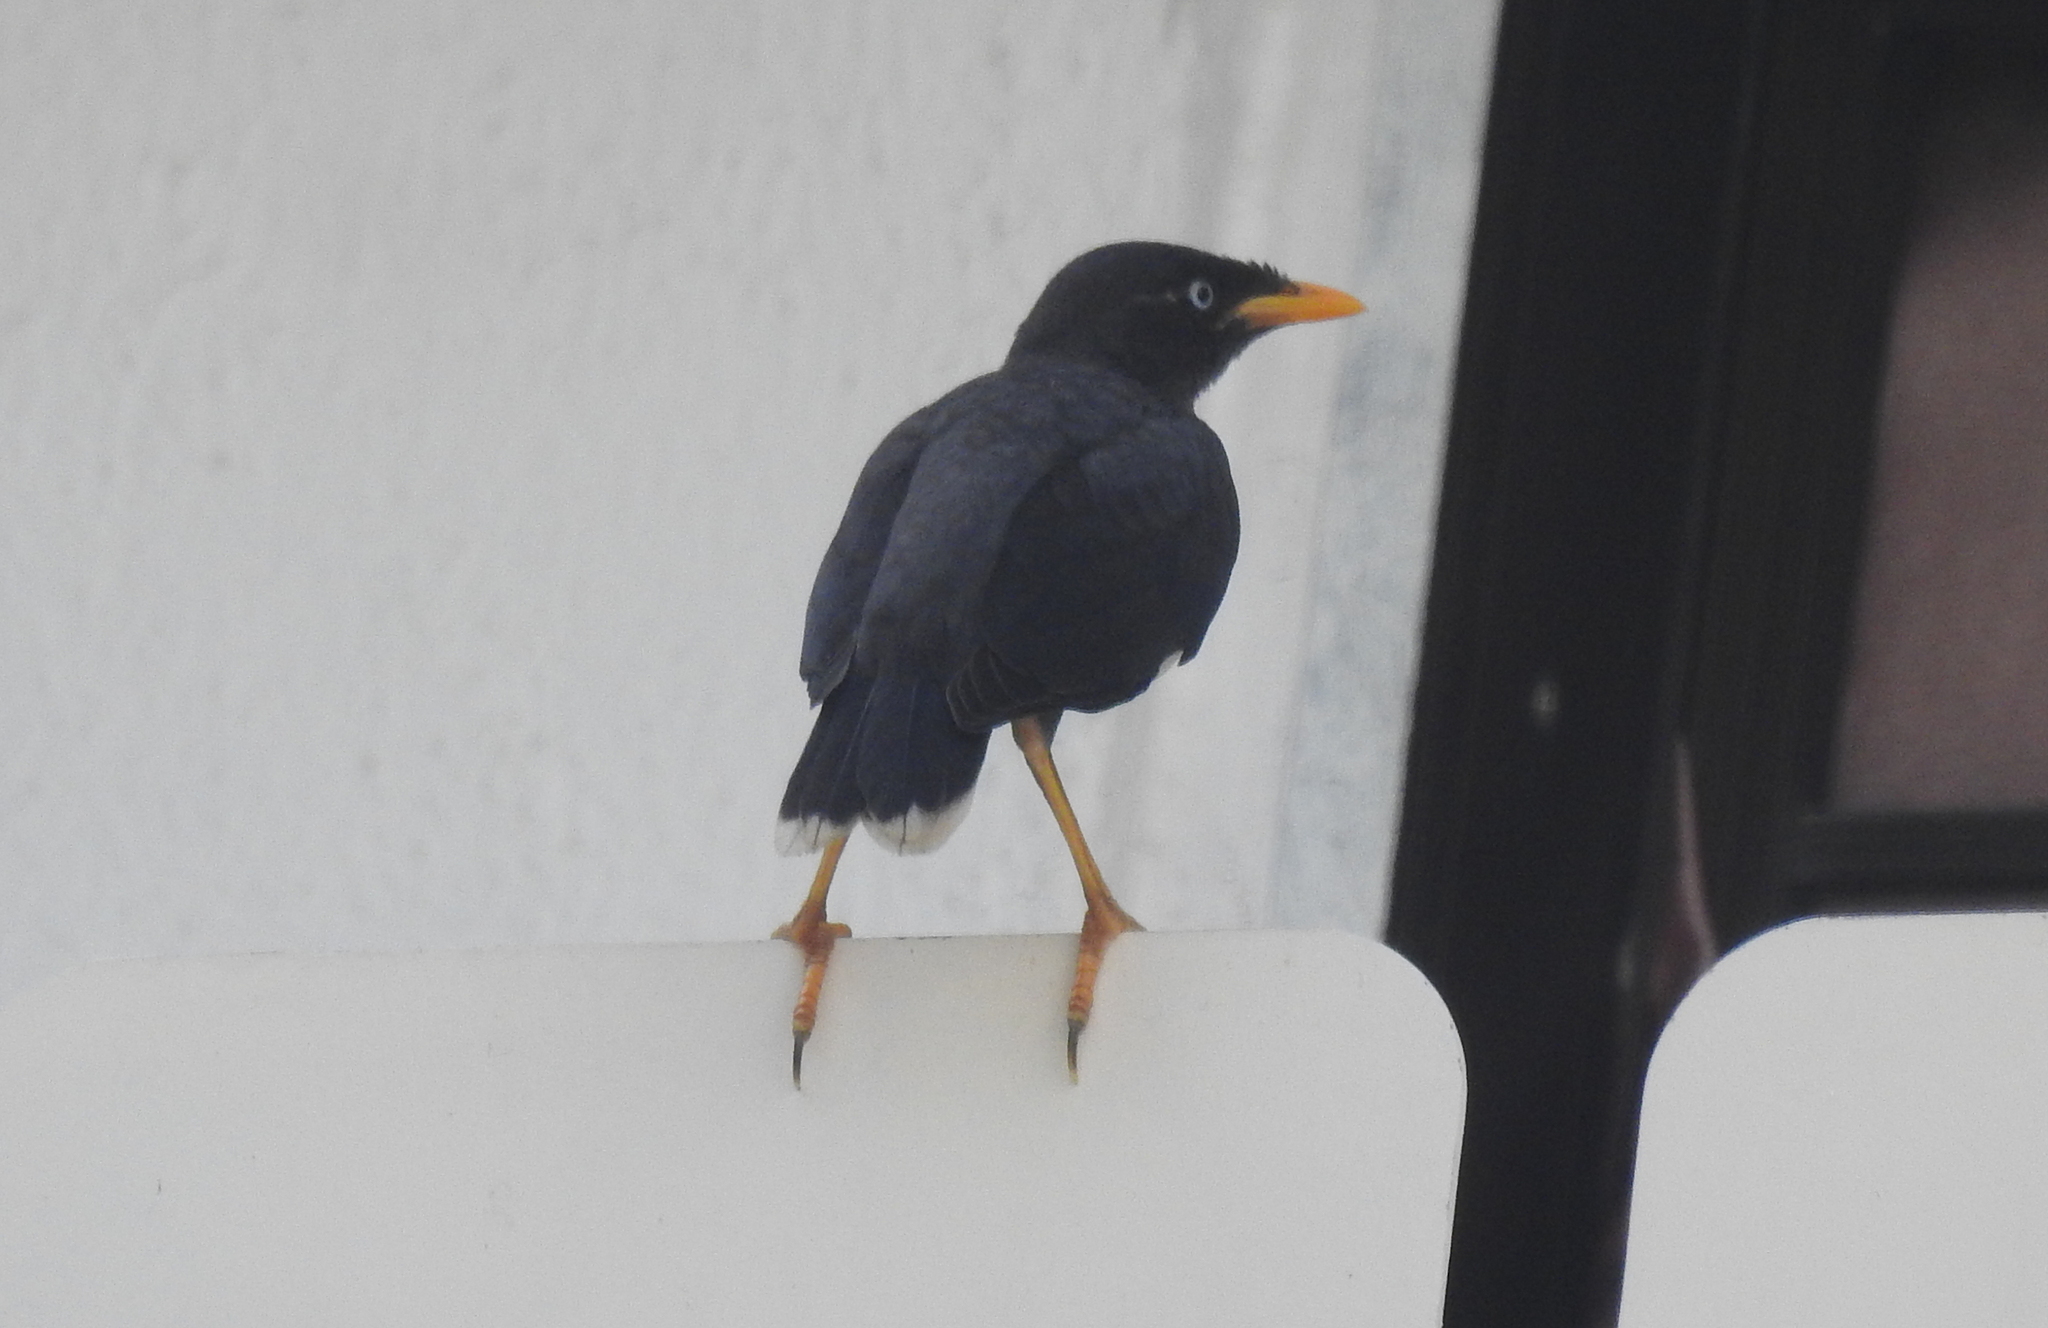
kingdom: Animalia
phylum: Chordata
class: Aves
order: Passeriformes
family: Sturnidae
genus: Acridotheres
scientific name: Acridotheres javanicus
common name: Javan myna
